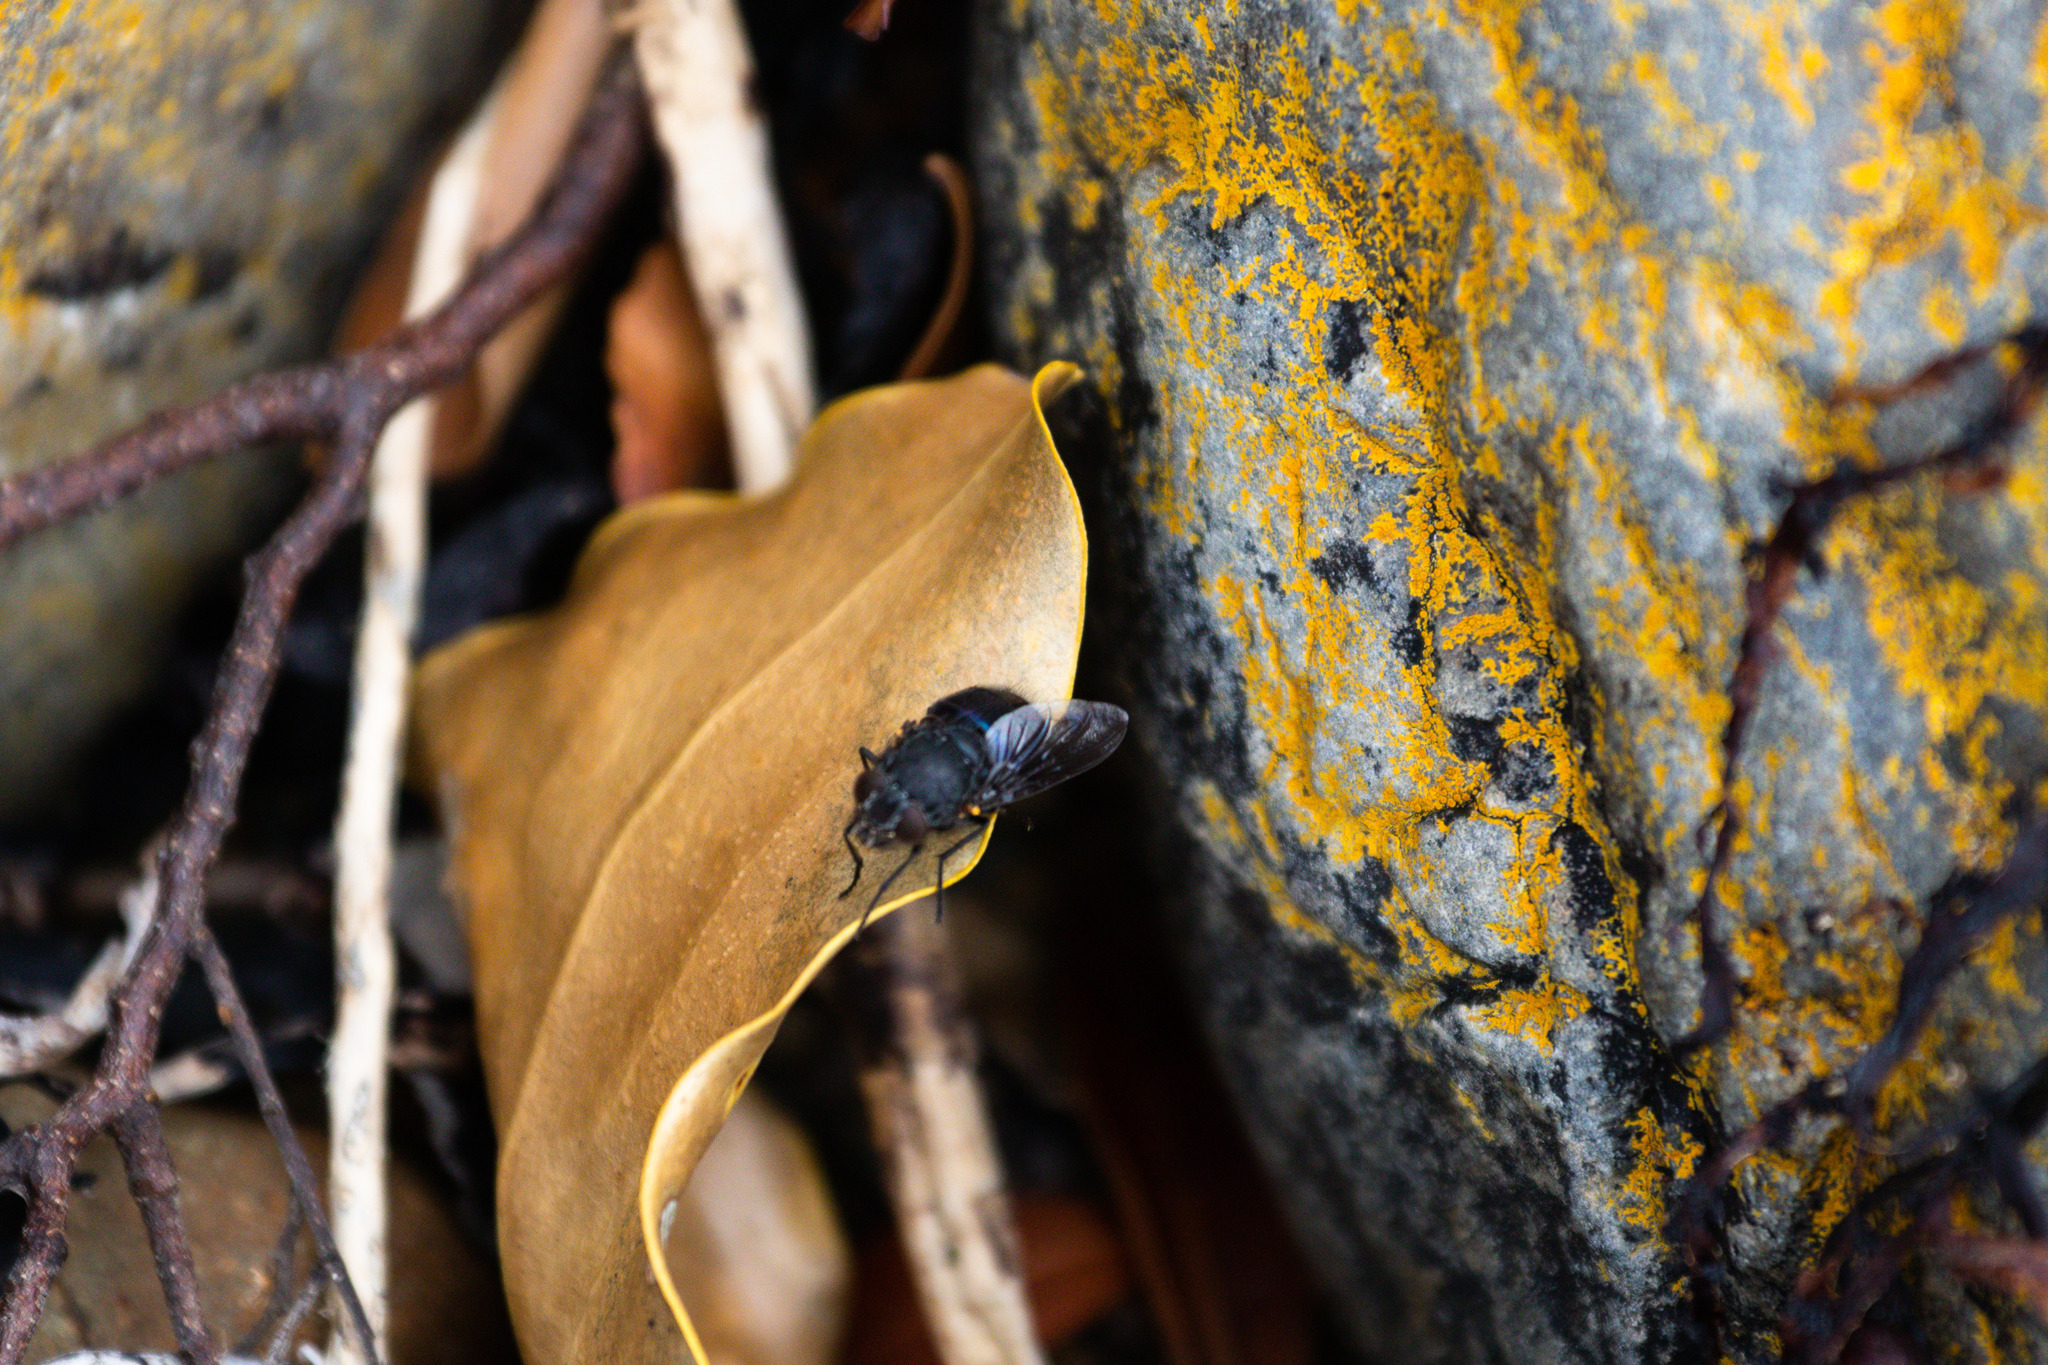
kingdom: Animalia
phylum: Arthropoda
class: Insecta
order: Diptera
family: Calliphoridae
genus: Calliphora
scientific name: Calliphora quadrimaculata
